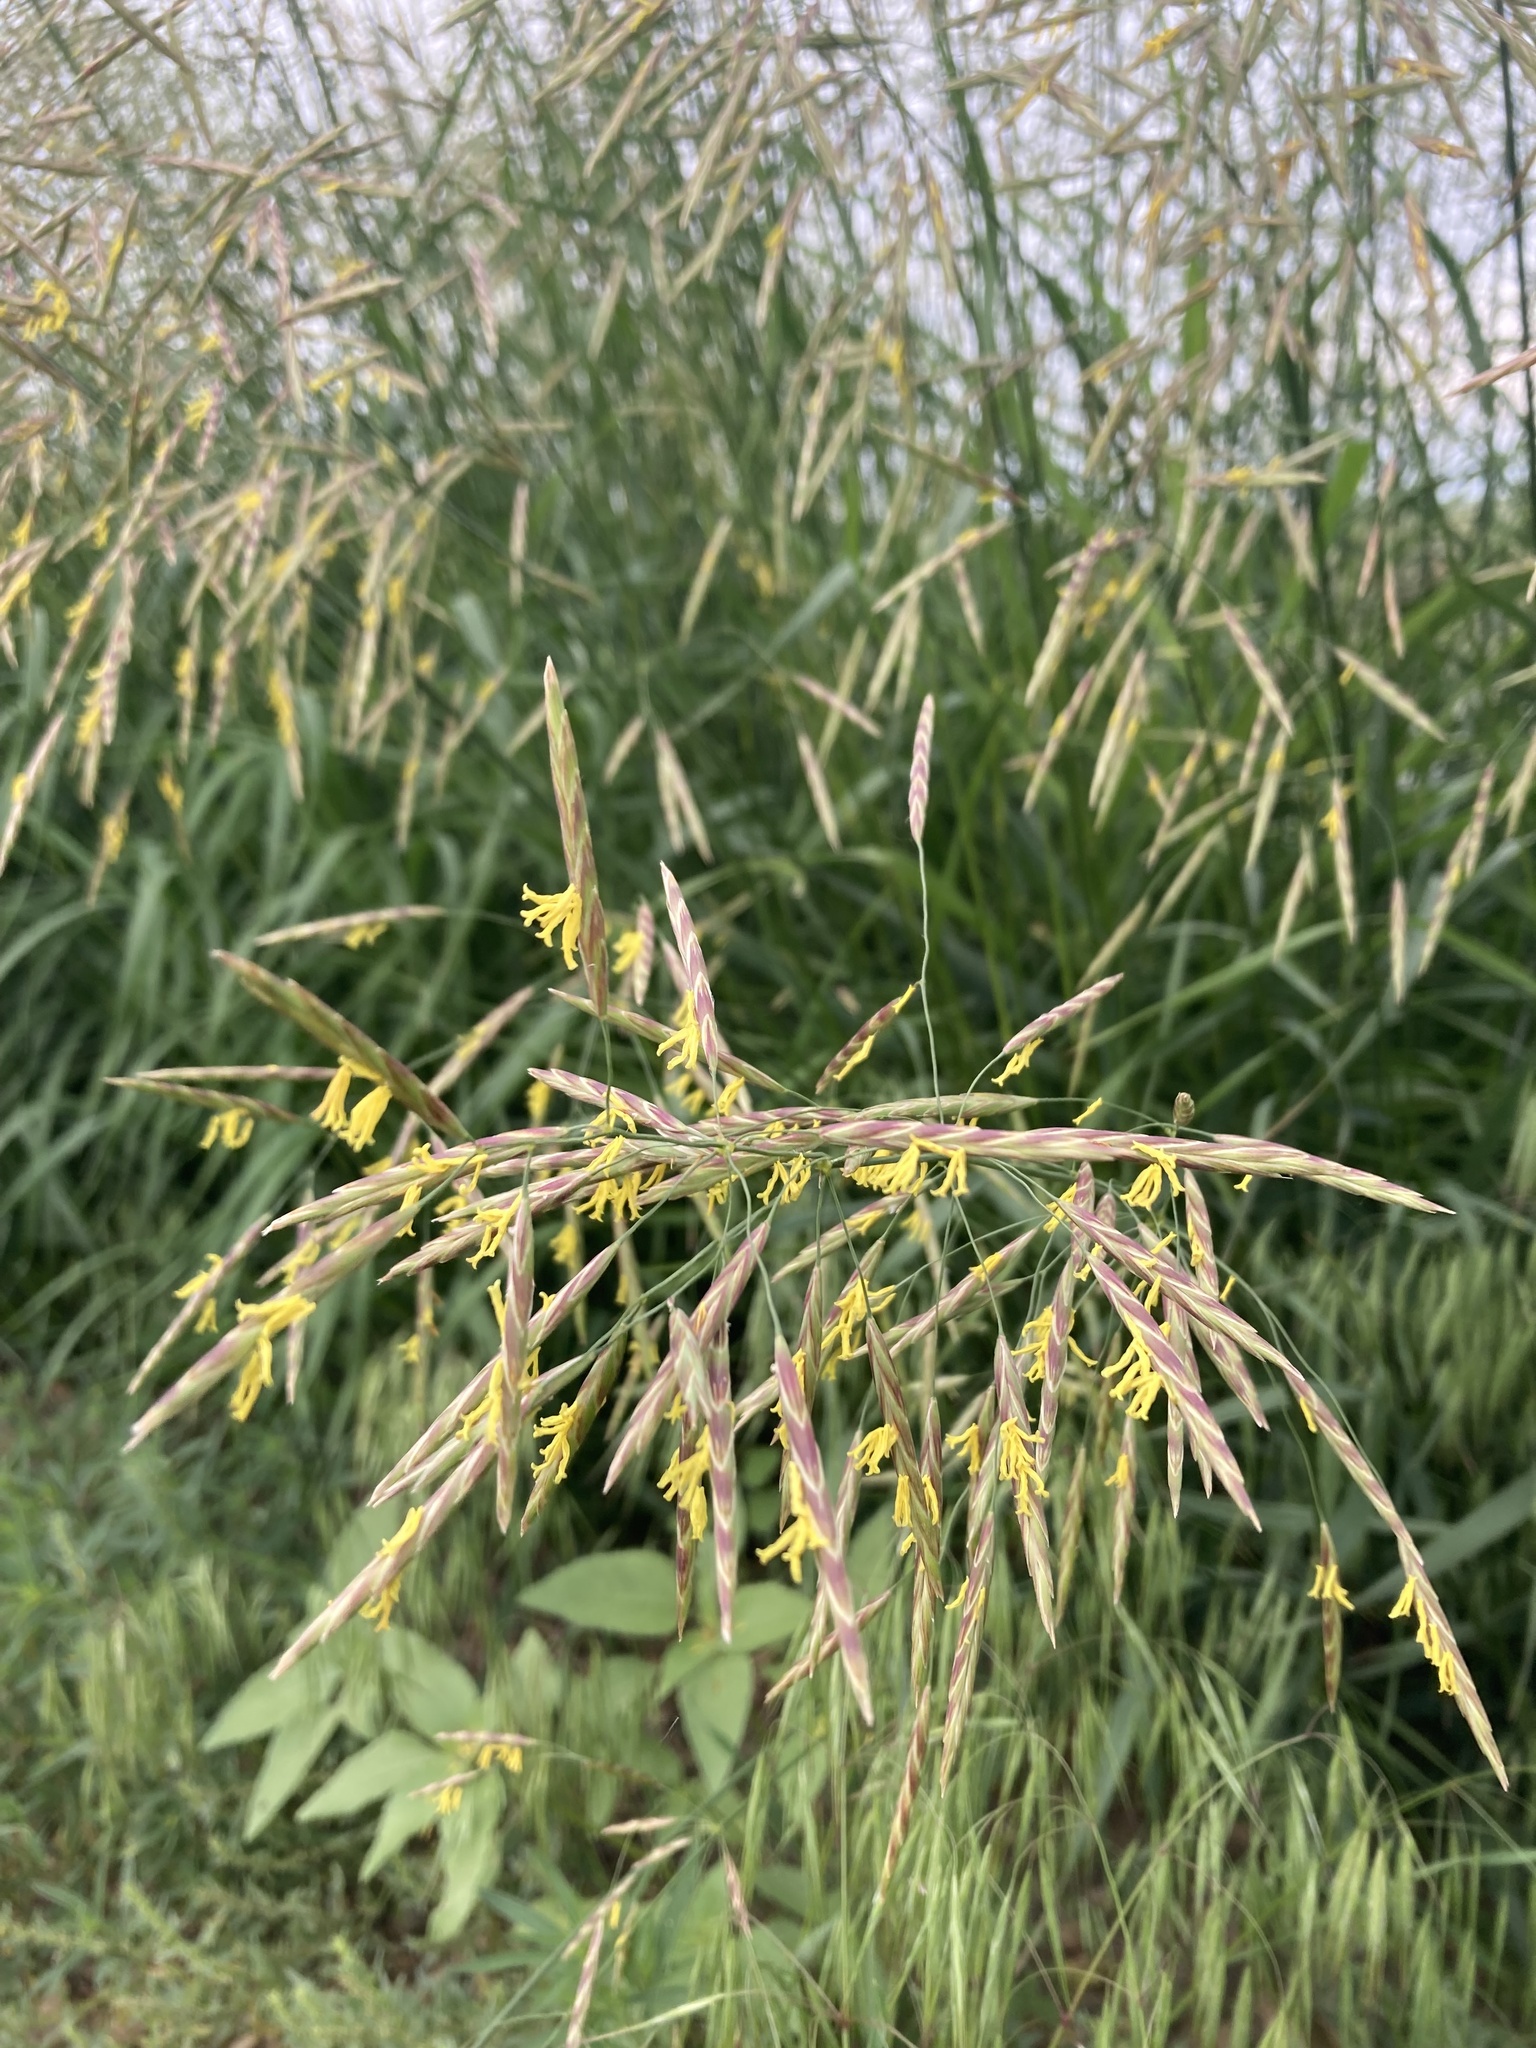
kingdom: Plantae
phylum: Tracheophyta
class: Liliopsida
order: Poales
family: Poaceae
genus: Bromus
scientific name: Bromus inermis
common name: Smooth brome
